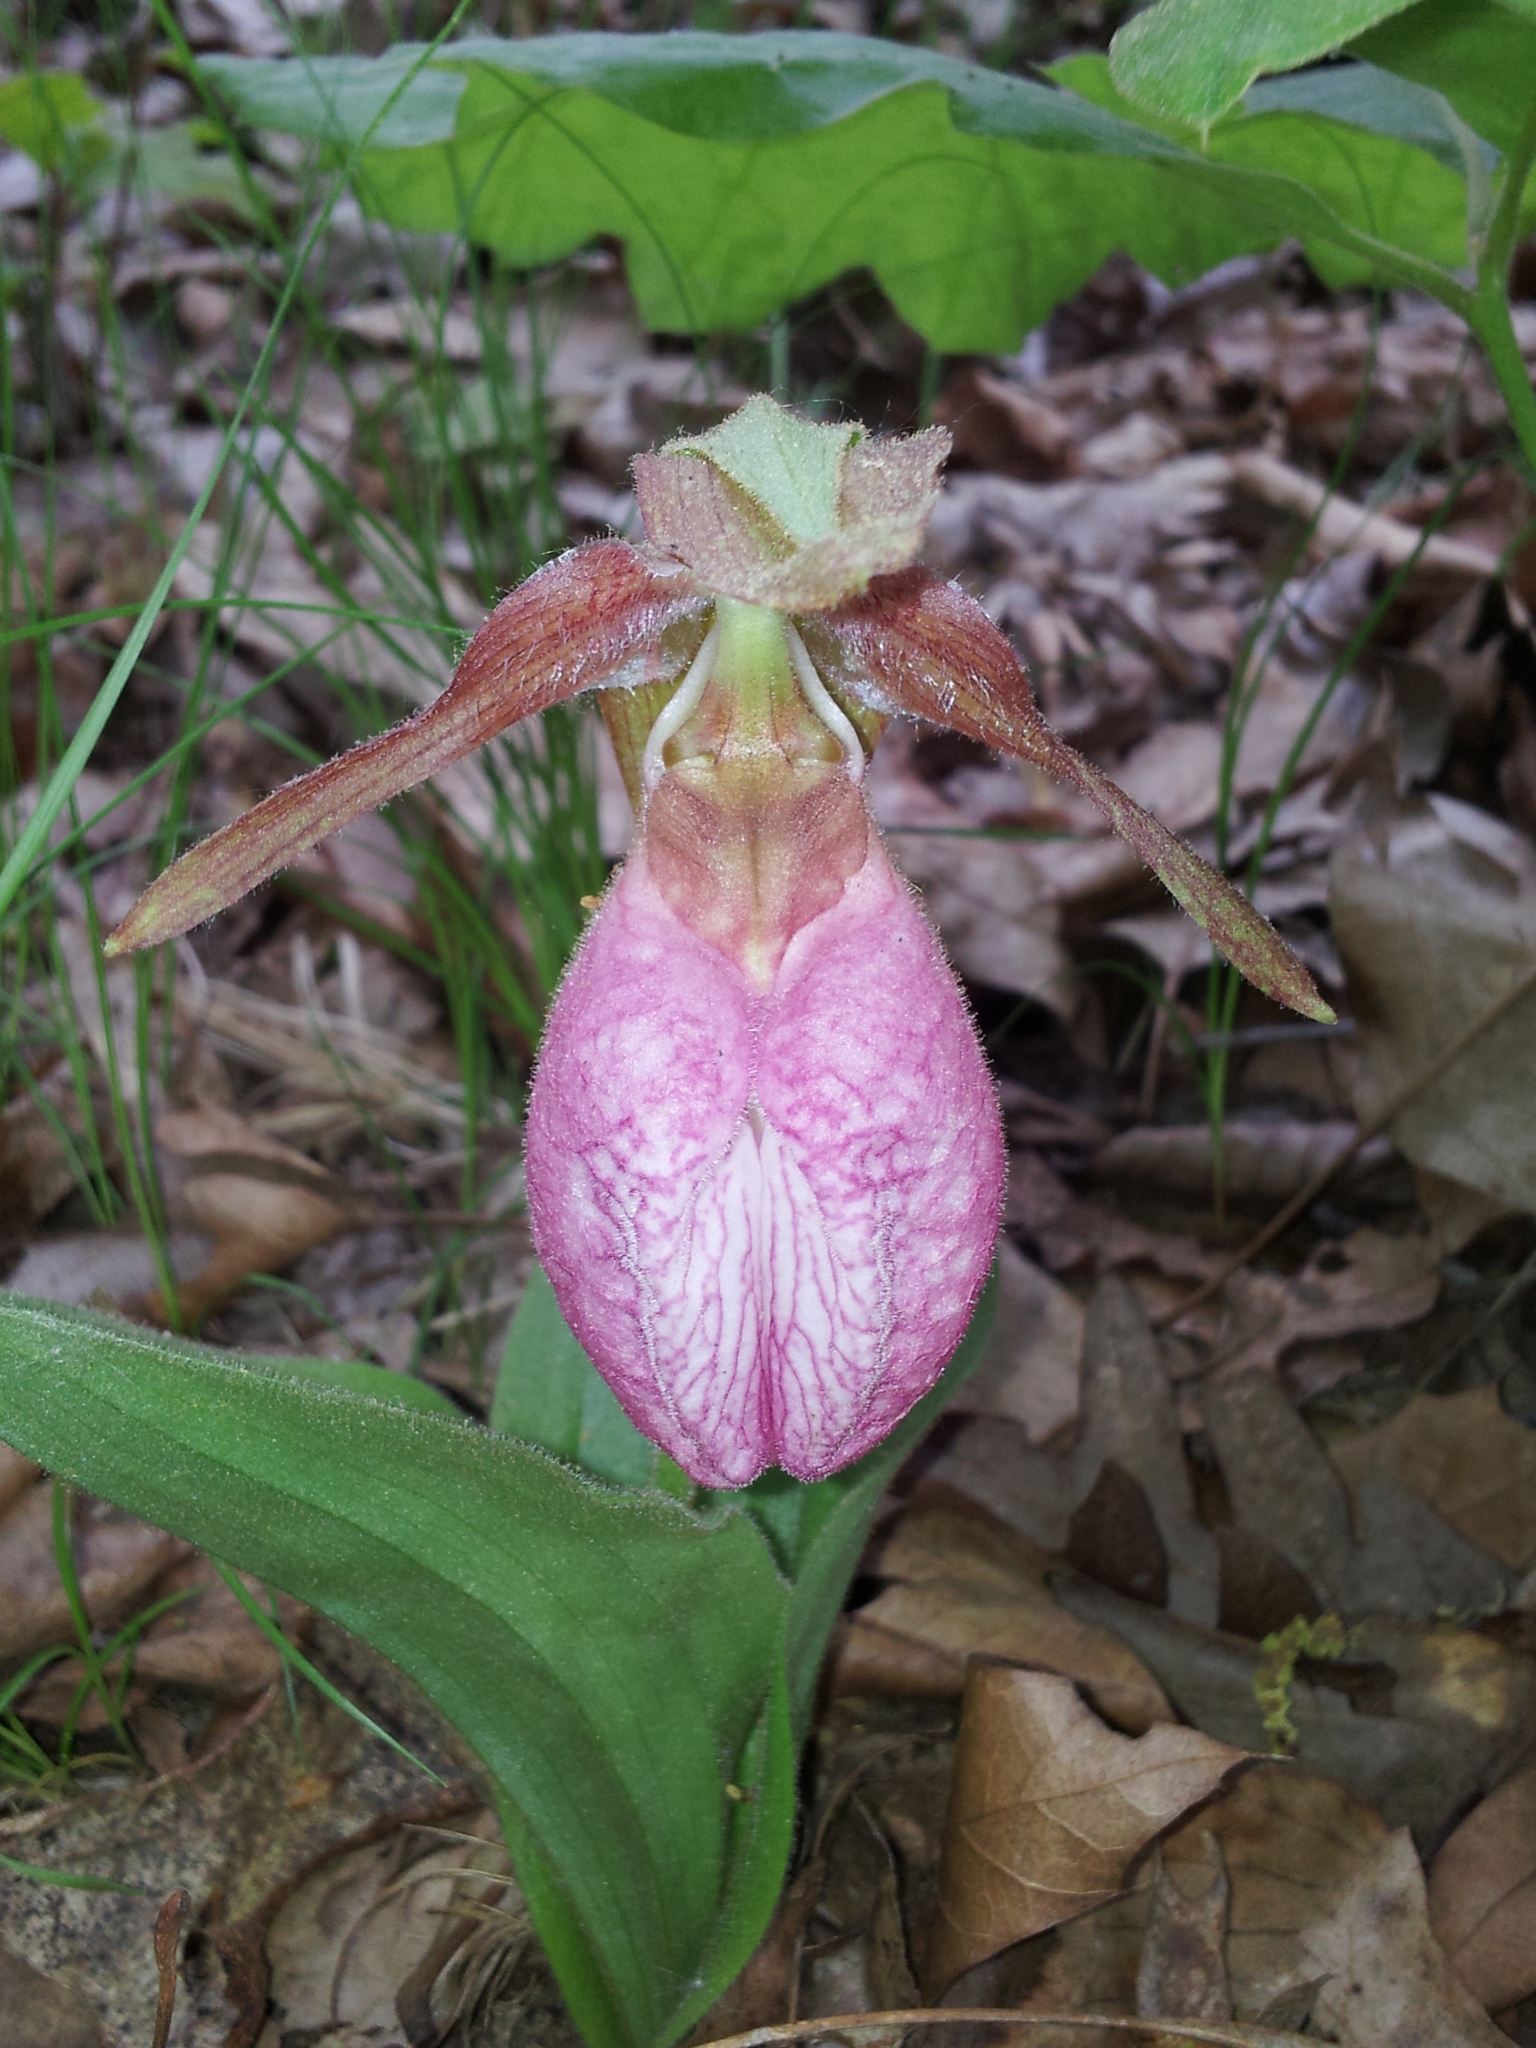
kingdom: Plantae
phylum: Tracheophyta
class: Liliopsida
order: Asparagales
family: Orchidaceae
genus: Cypripedium
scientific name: Cypripedium acaule
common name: Pink lady's-slipper
